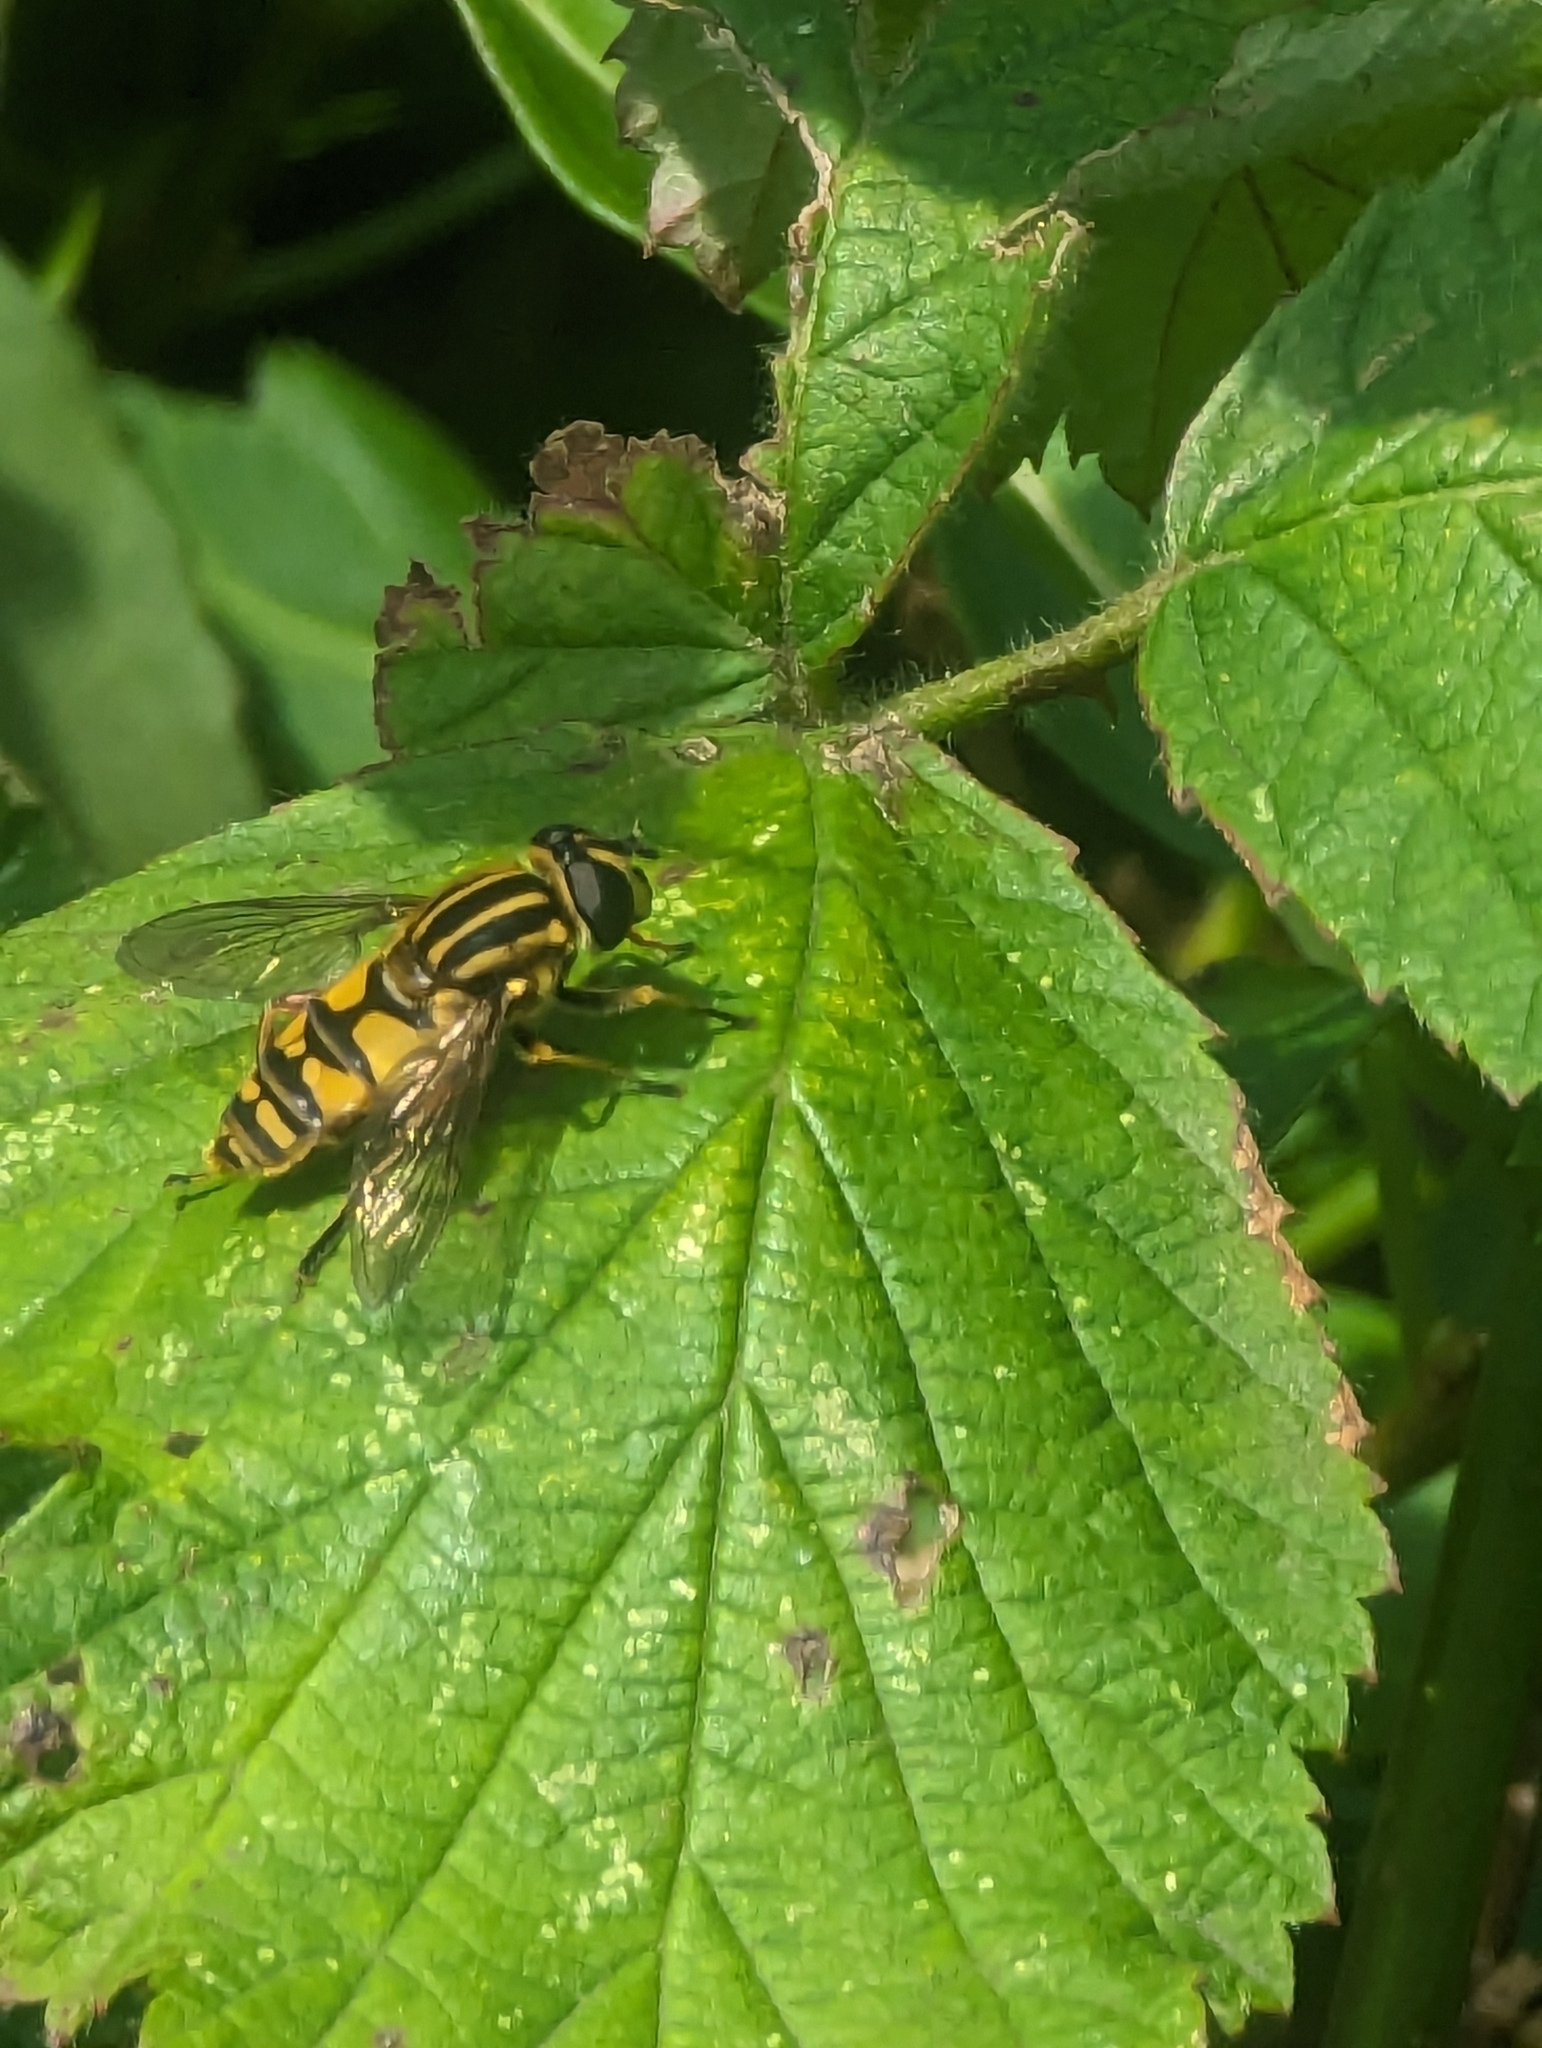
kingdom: Animalia
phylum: Arthropoda
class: Insecta
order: Diptera
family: Syrphidae
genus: Helophilus
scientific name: Helophilus pendulus
